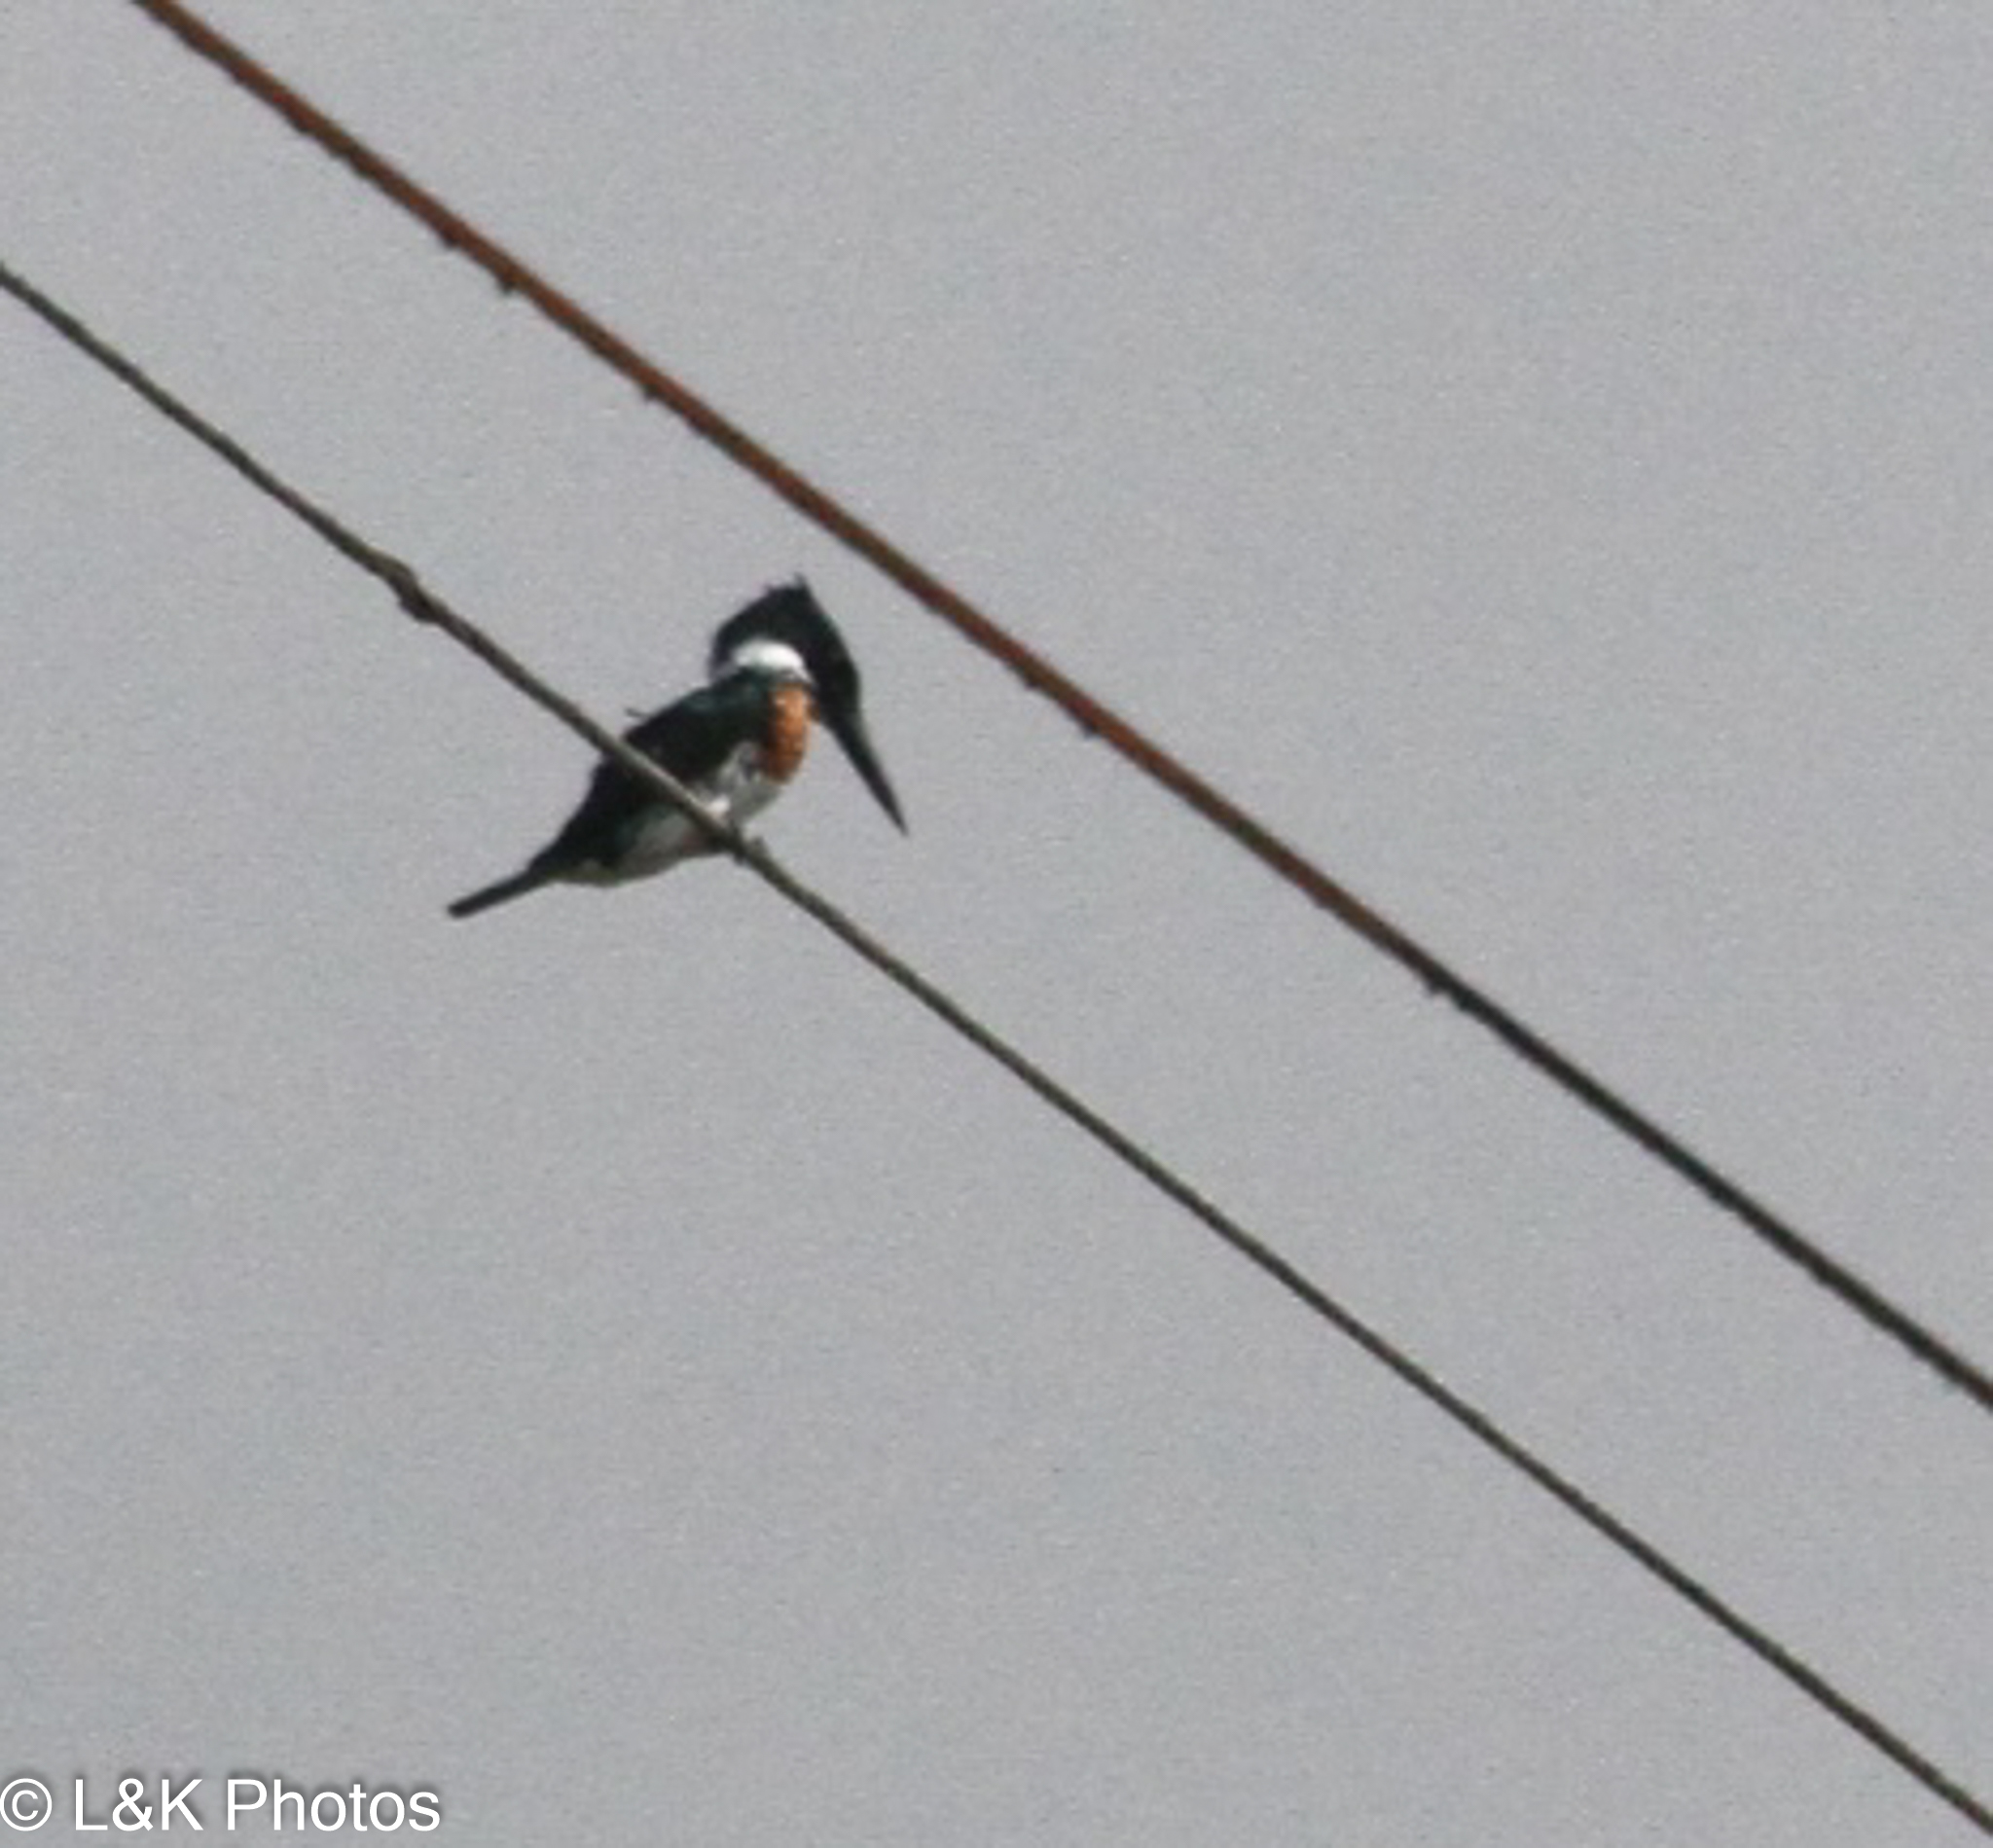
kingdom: Animalia
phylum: Chordata
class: Aves
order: Coraciiformes
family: Alcedinidae
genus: Chloroceryle
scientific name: Chloroceryle amazona
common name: Amazon kingfisher
